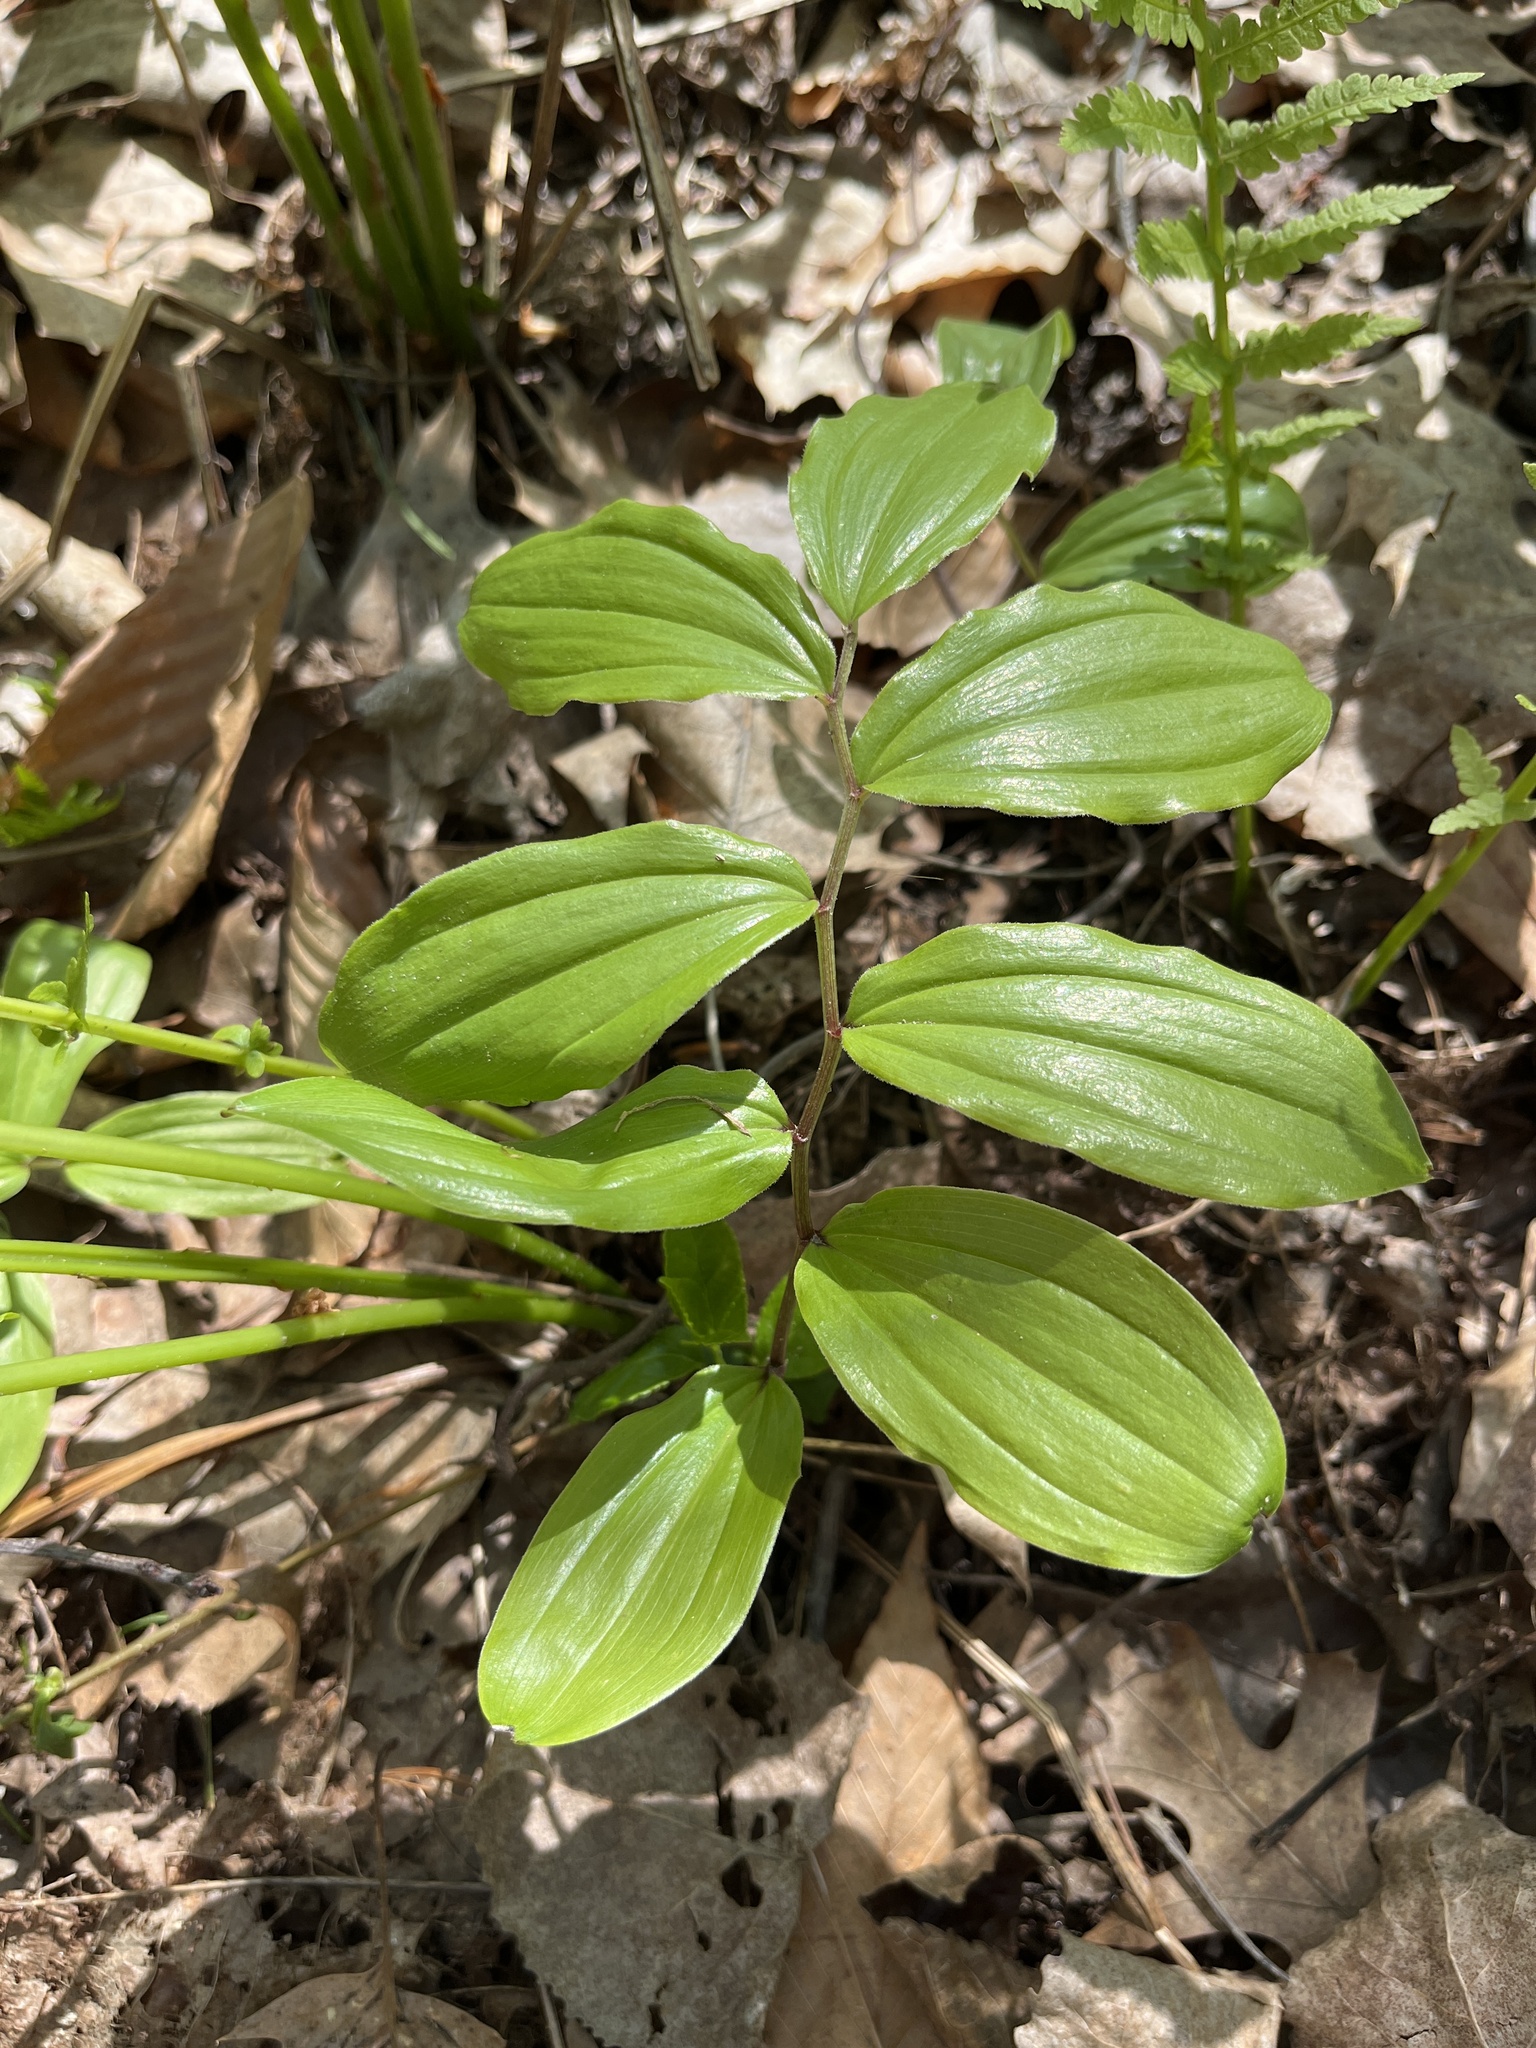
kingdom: Plantae
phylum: Tracheophyta
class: Liliopsida
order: Asparagales
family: Asparagaceae
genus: Maianthemum
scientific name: Maianthemum racemosum
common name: False spikenard
